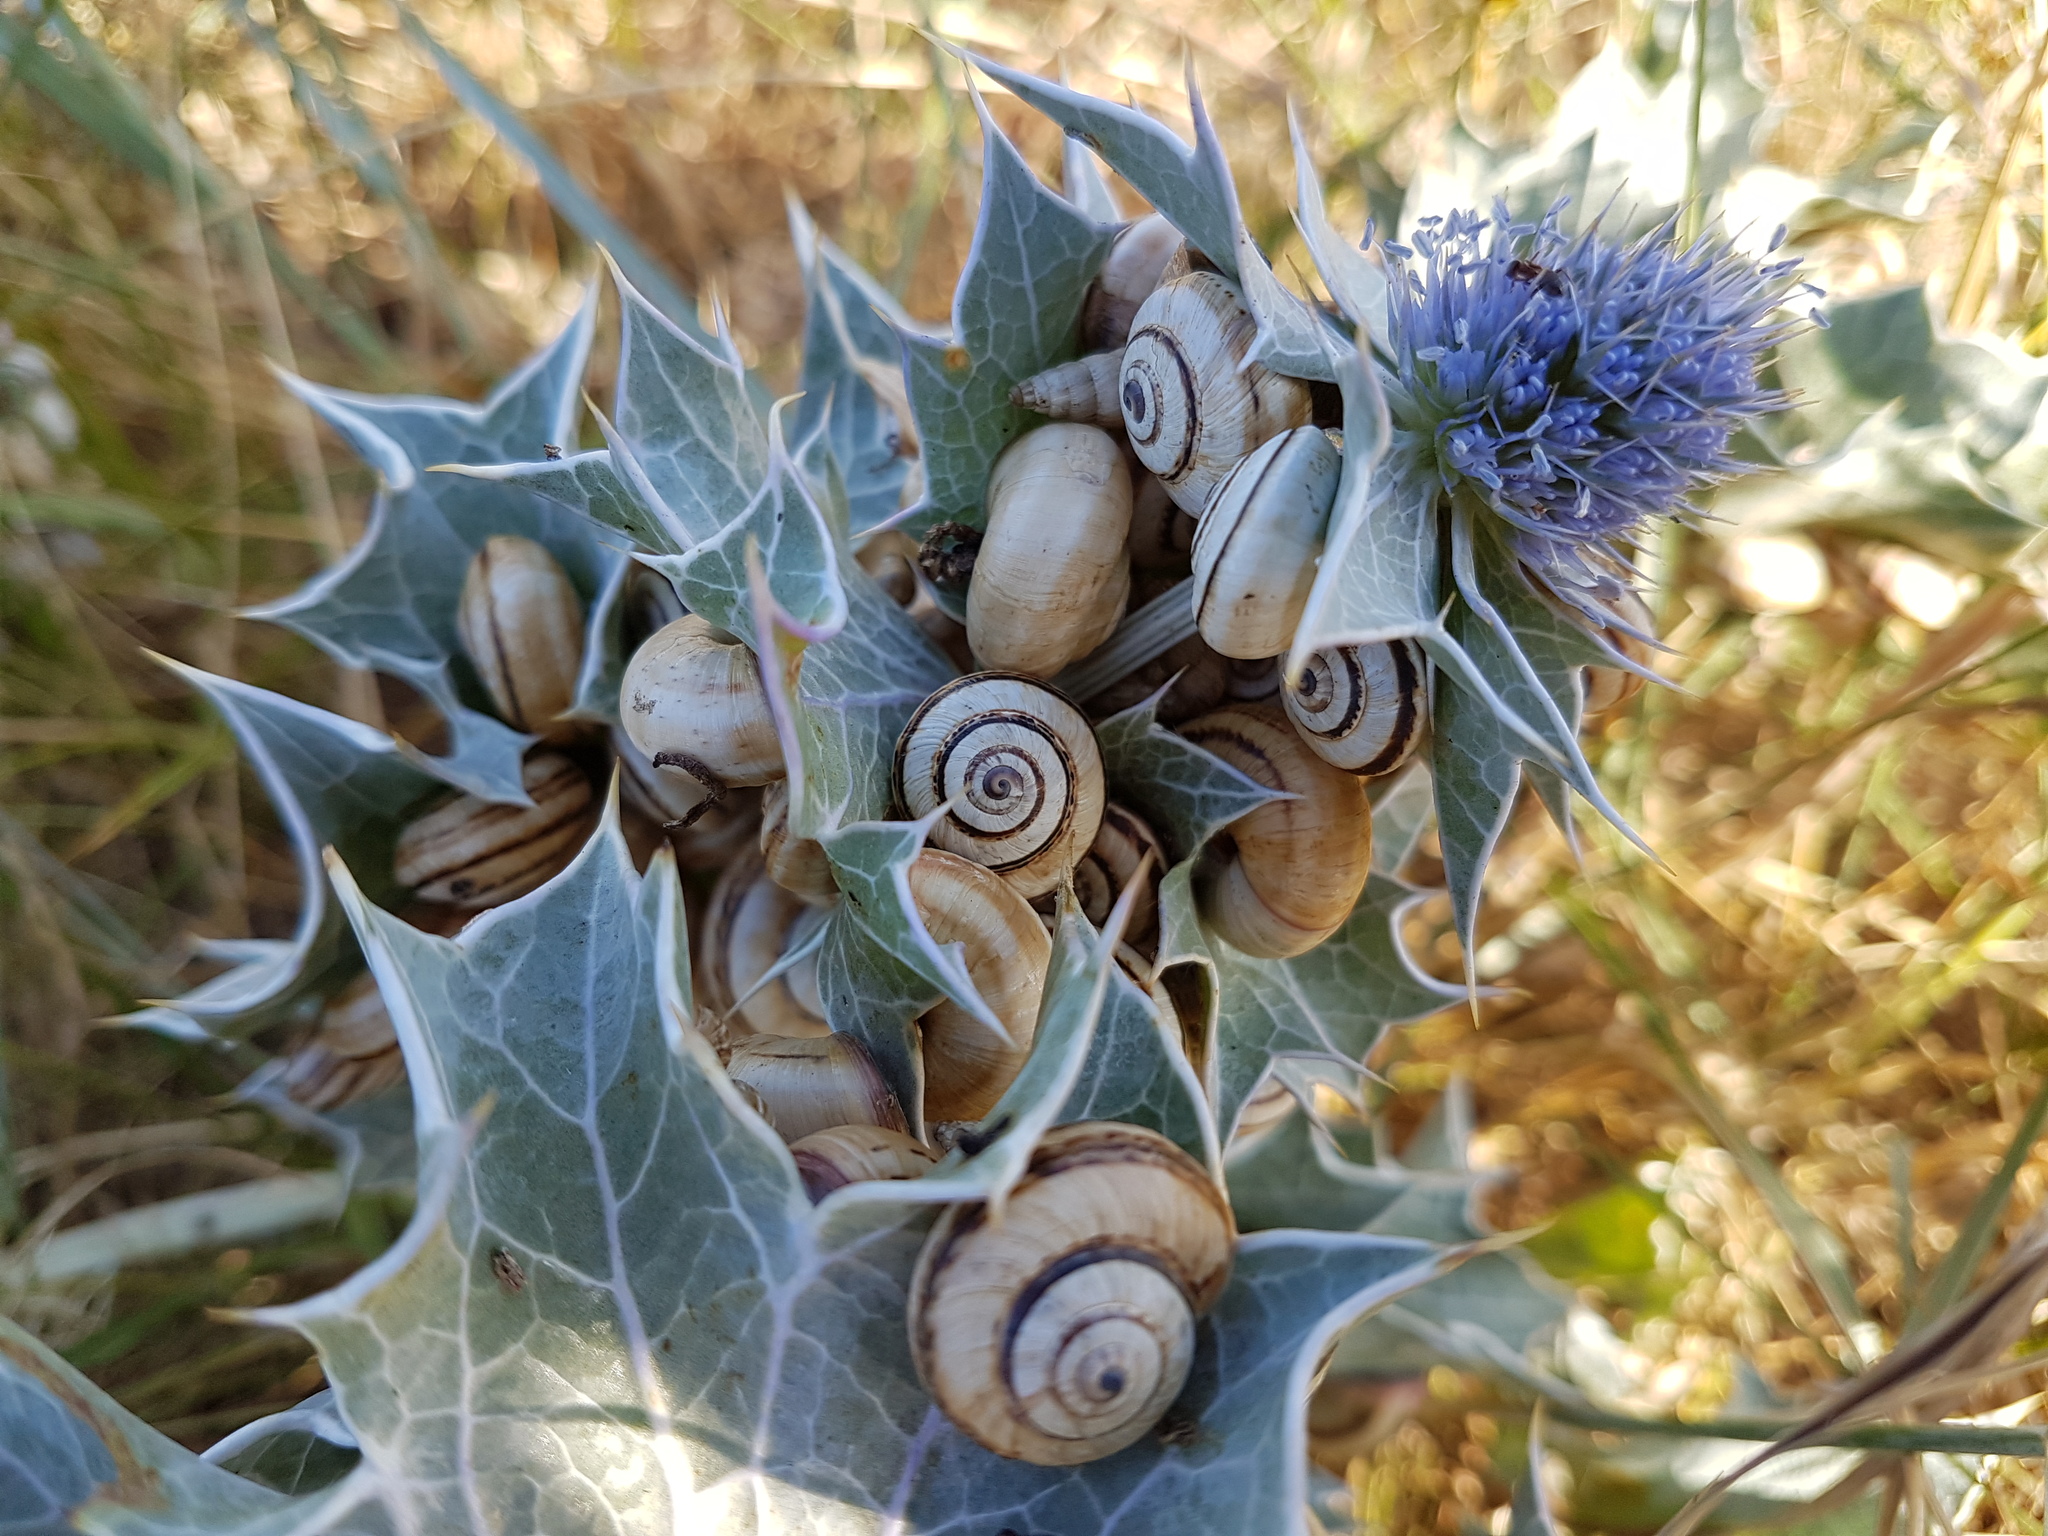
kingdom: Animalia
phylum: Mollusca
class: Gastropoda
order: Stylommatophora
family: Helicidae
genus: Theba
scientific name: Theba pisana
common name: White snail
